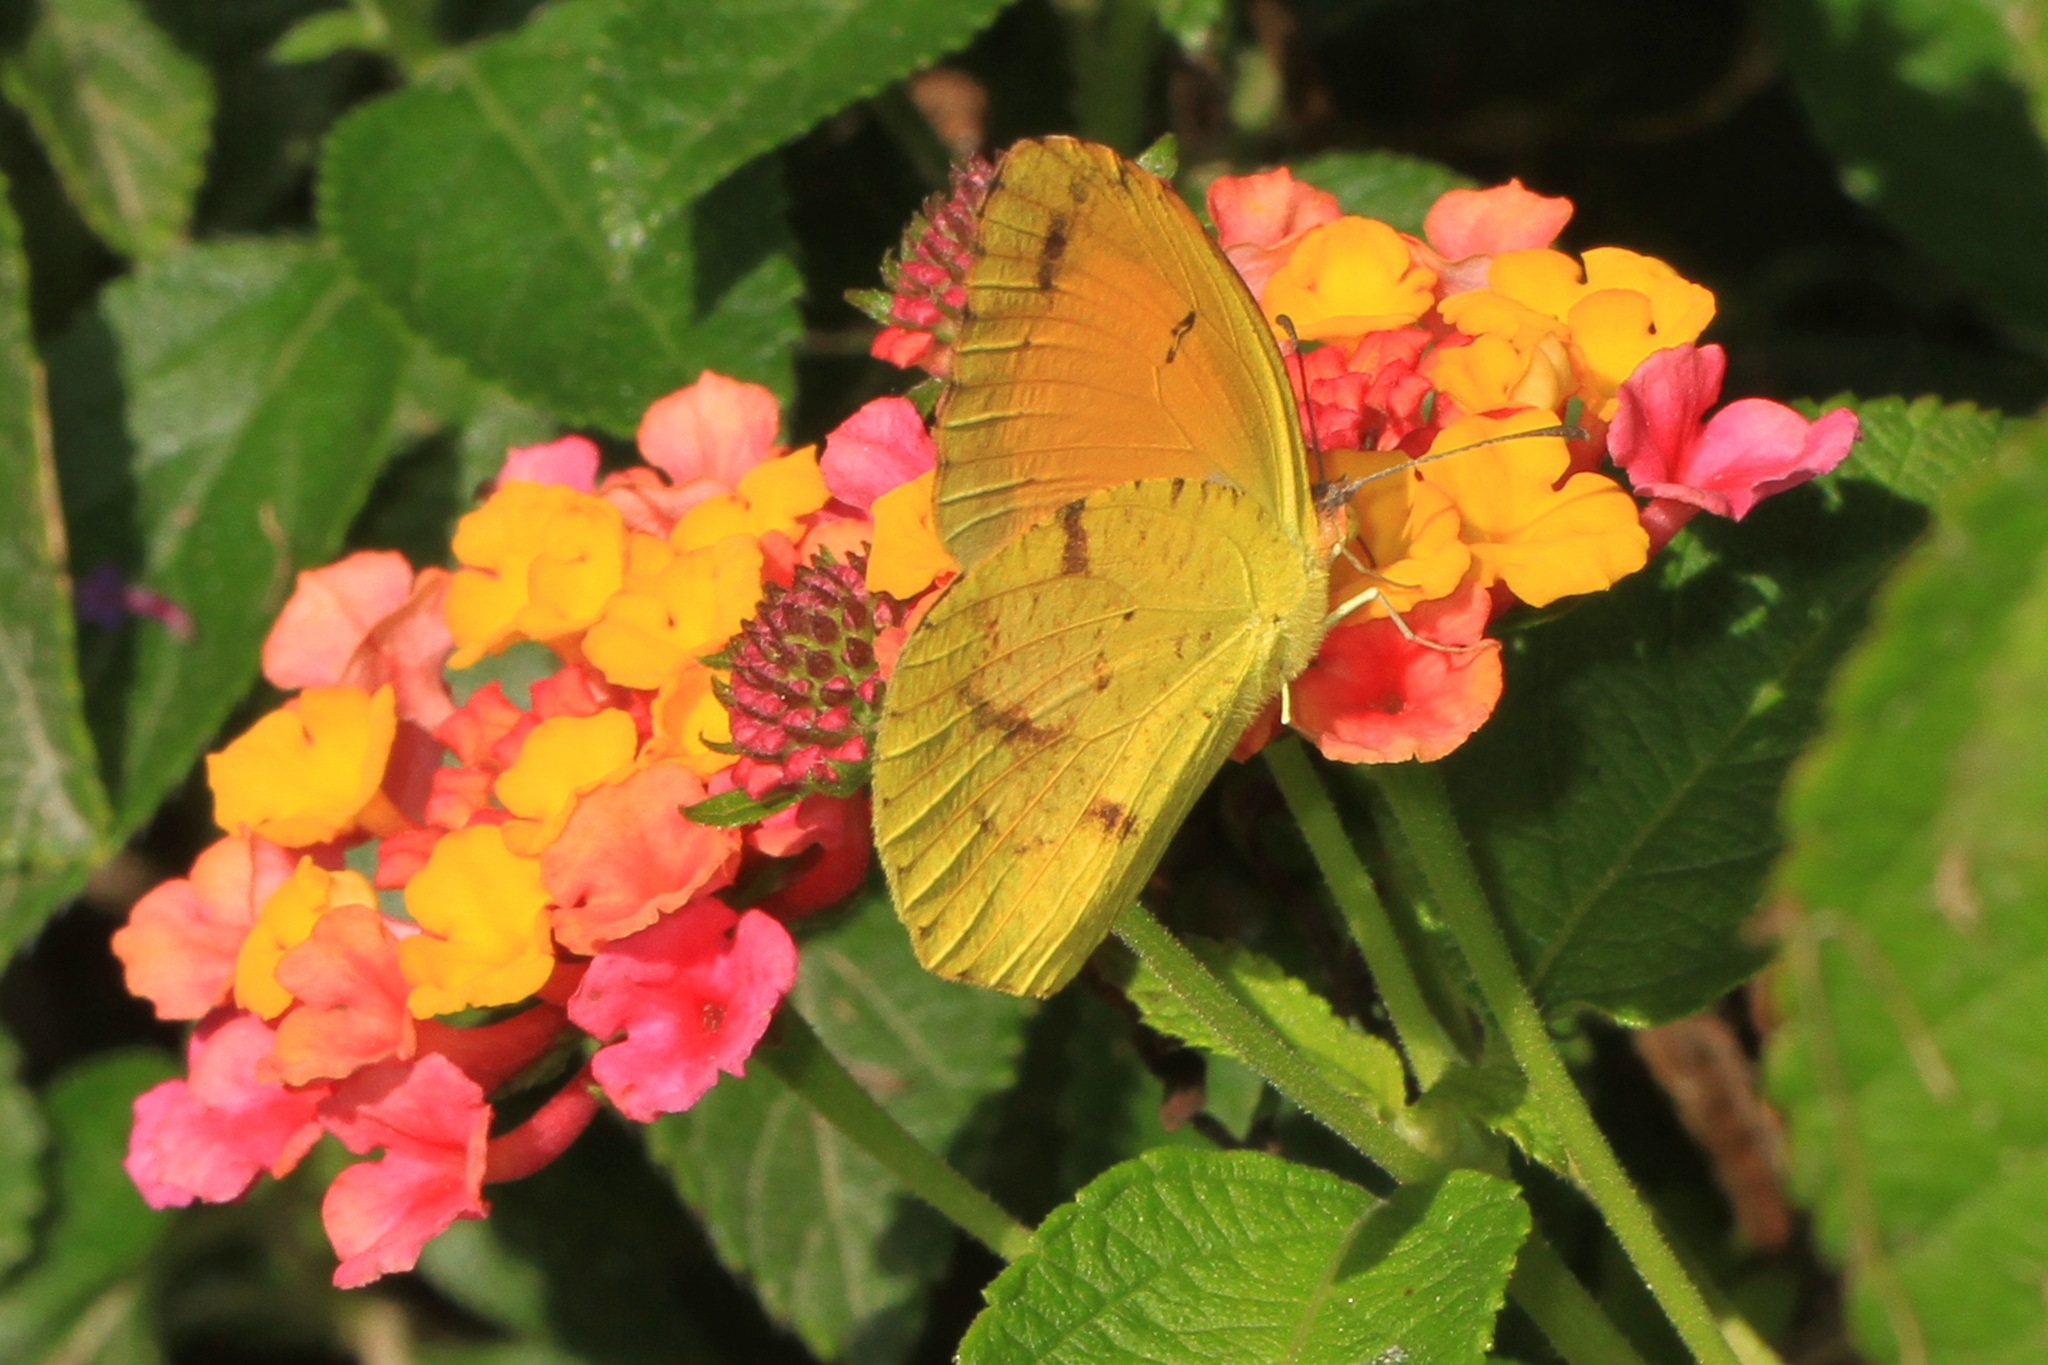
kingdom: Animalia
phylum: Arthropoda
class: Insecta
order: Lepidoptera
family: Pieridae
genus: Abaeis
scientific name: Abaeis nicippe
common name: Sleepy orange
